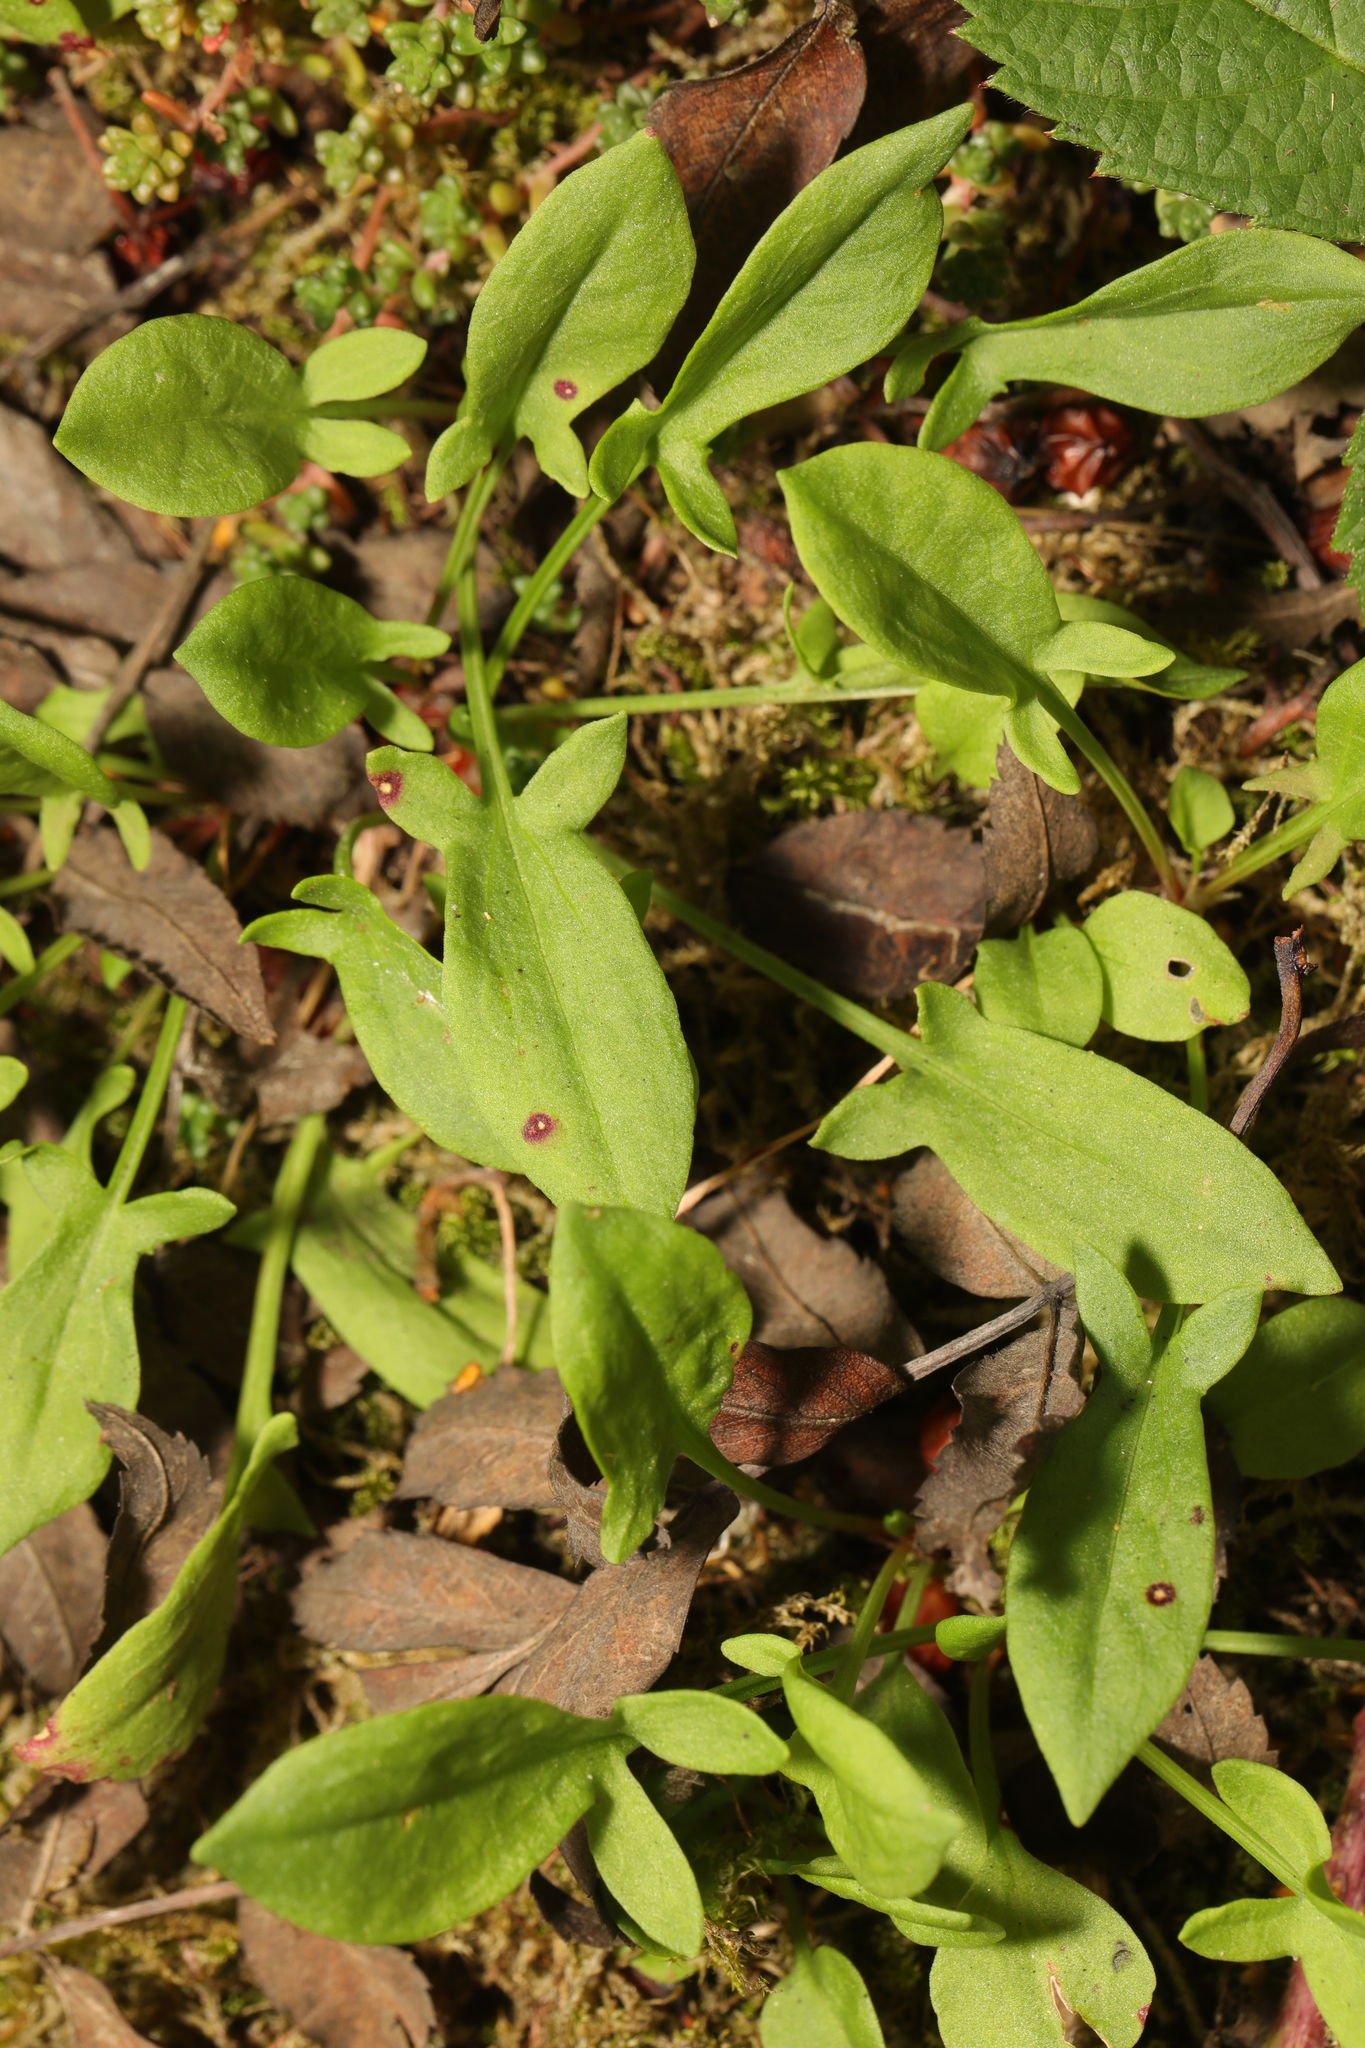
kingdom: Plantae
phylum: Tracheophyta
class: Magnoliopsida
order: Caryophyllales
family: Polygonaceae
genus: Rumex
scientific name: Rumex acetosella
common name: Common sheep sorrel
